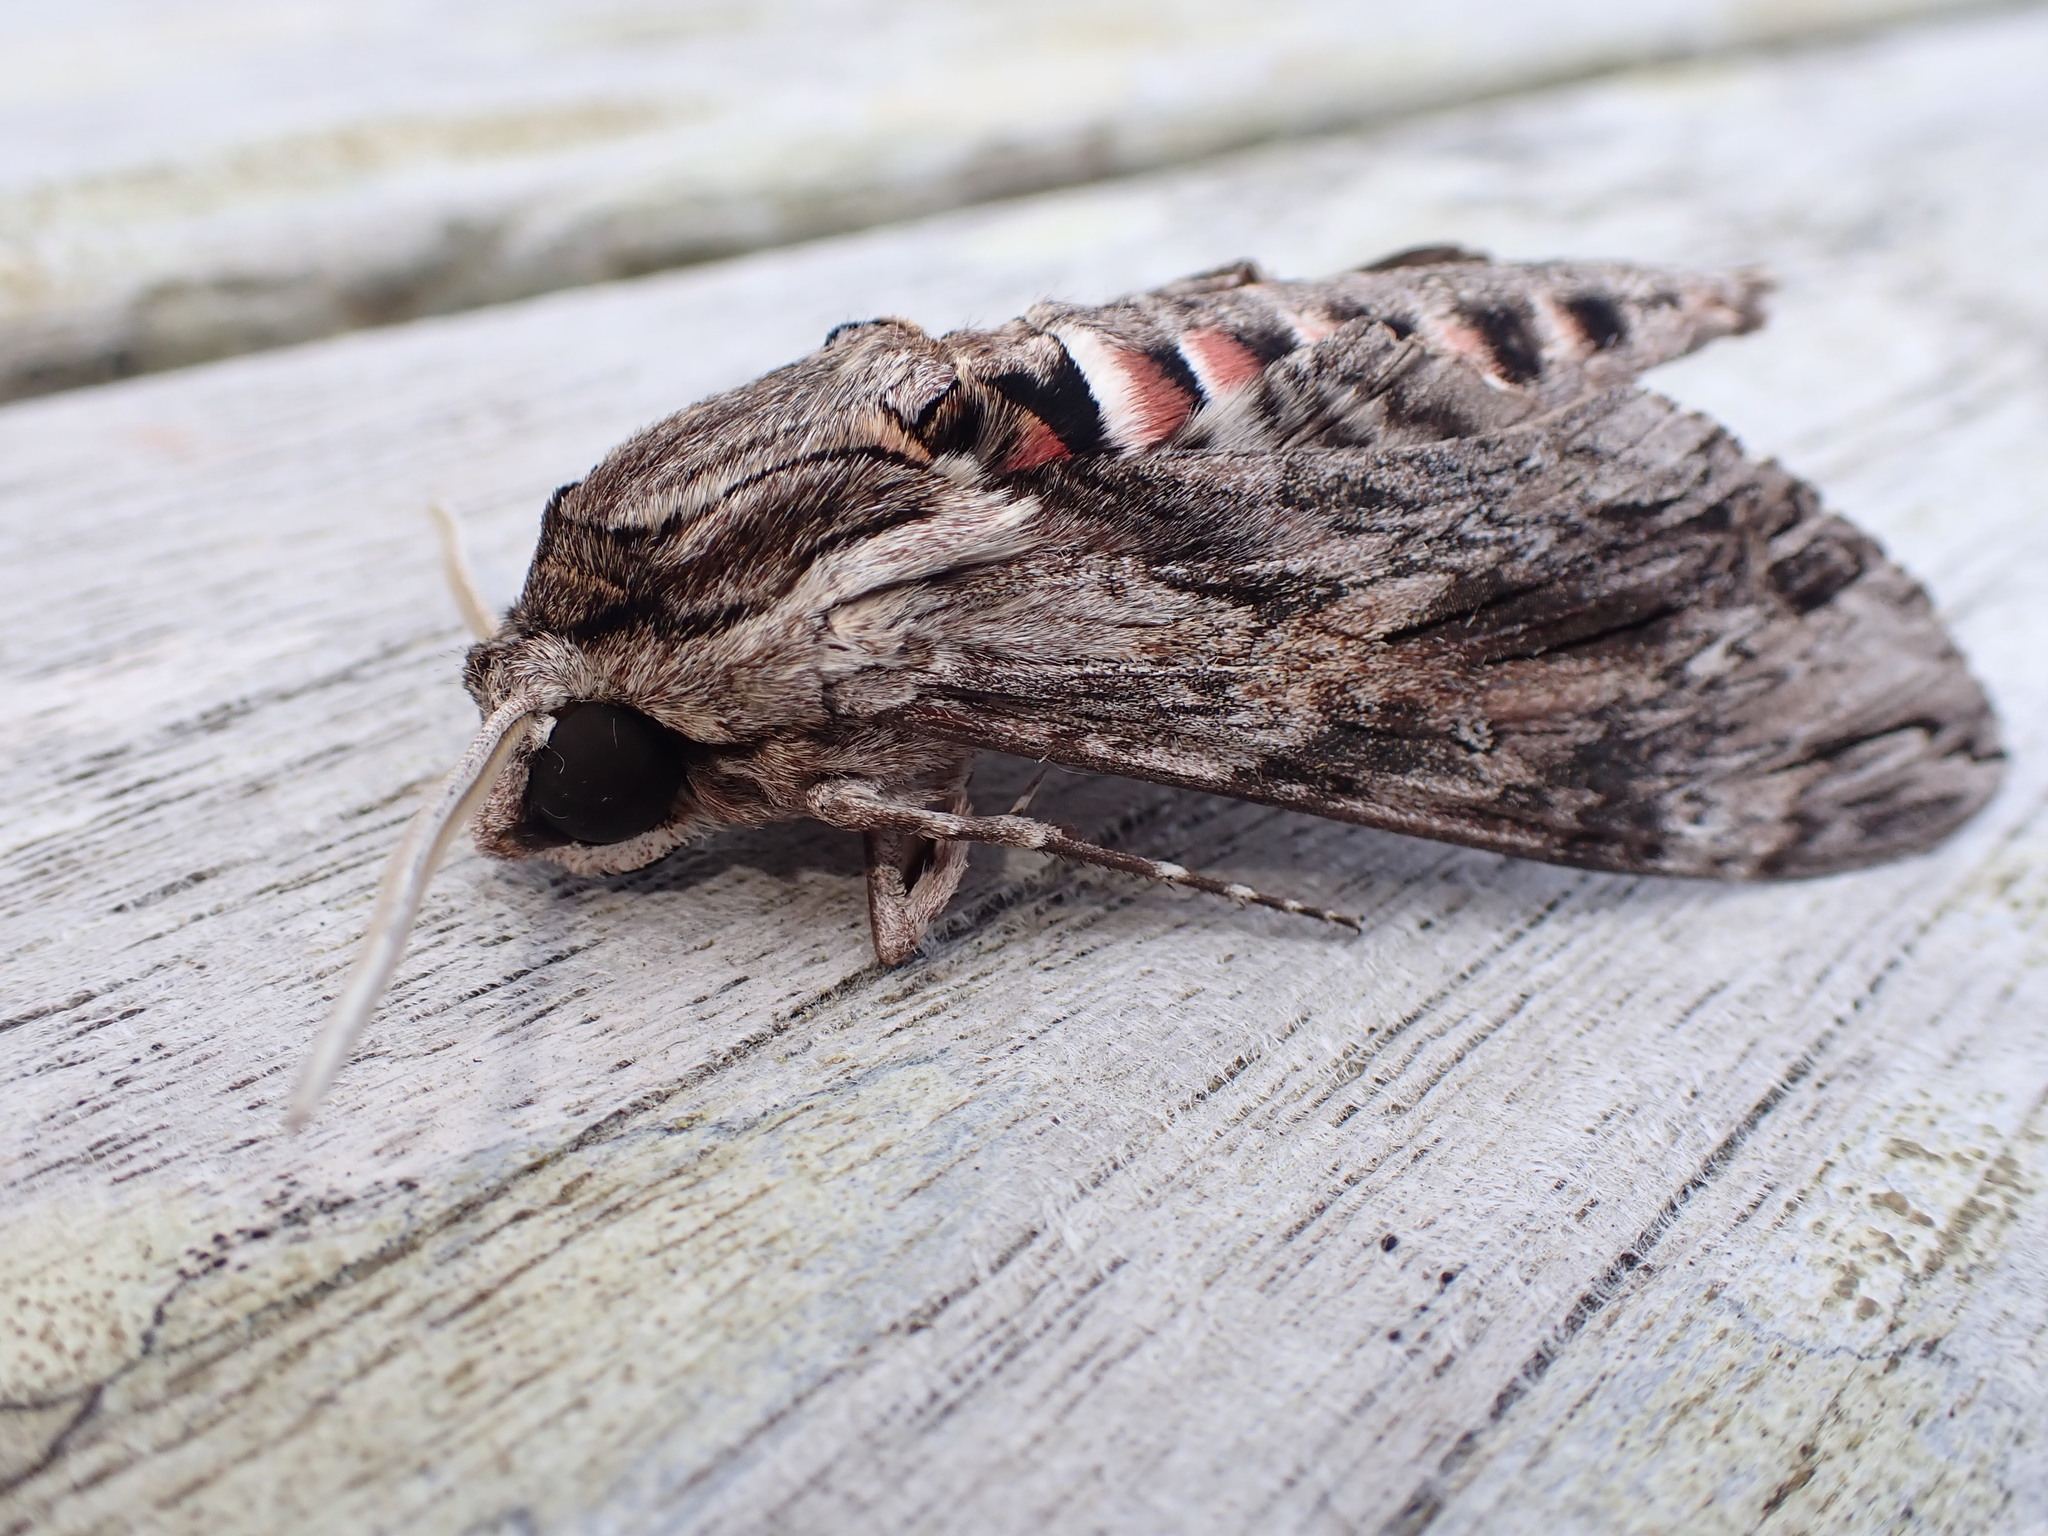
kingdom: Animalia
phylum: Arthropoda
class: Insecta
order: Lepidoptera
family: Sphingidae
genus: Agrius
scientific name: Agrius convolvuli
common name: Convolvulus hawkmoth
